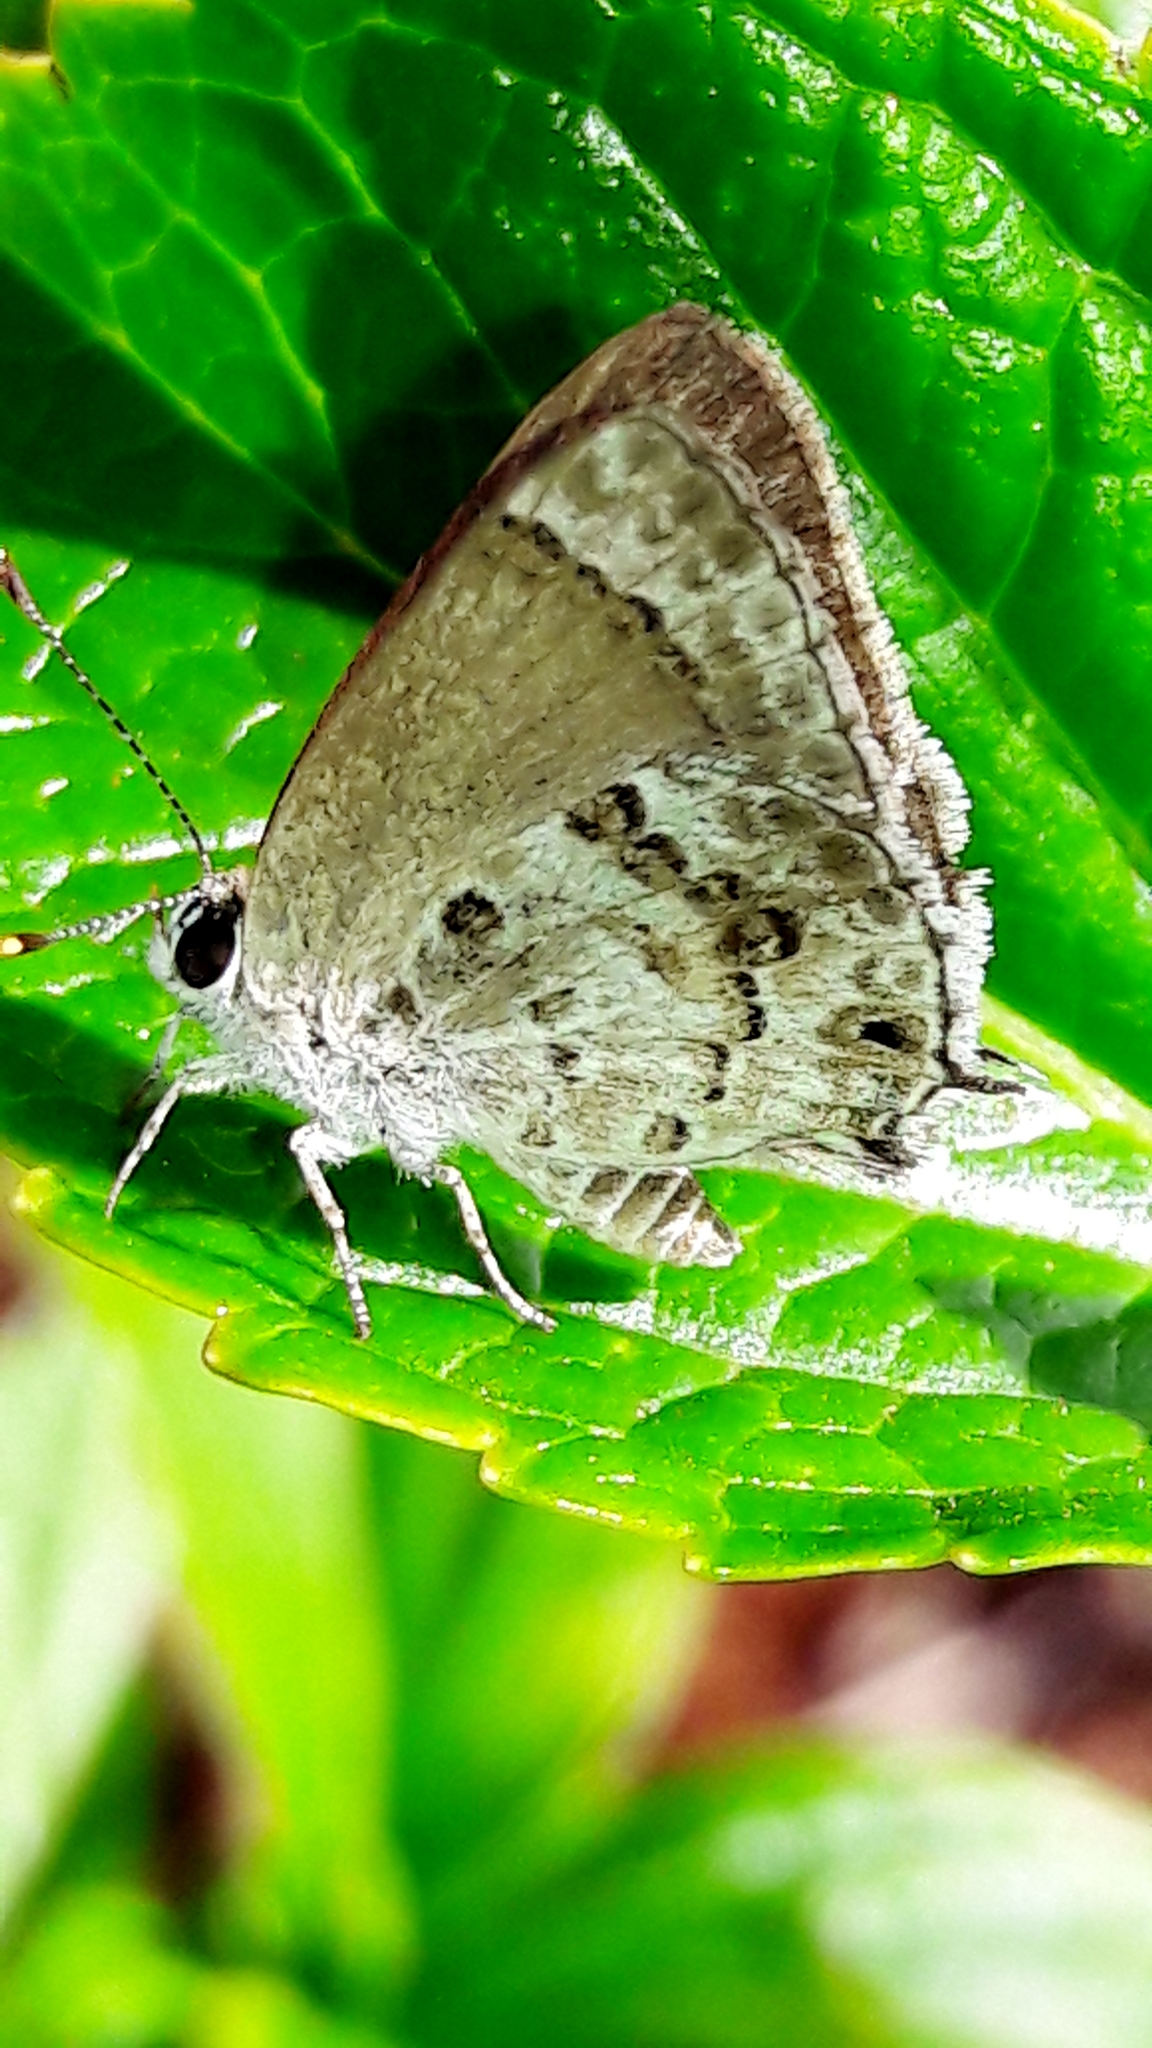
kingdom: Animalia
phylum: Arthropoda
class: Insecta
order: Lepidoptera
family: Lycaenidae
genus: Strymon
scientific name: Strymon astiocha
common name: Gray-spotted scrub-hairstreak
